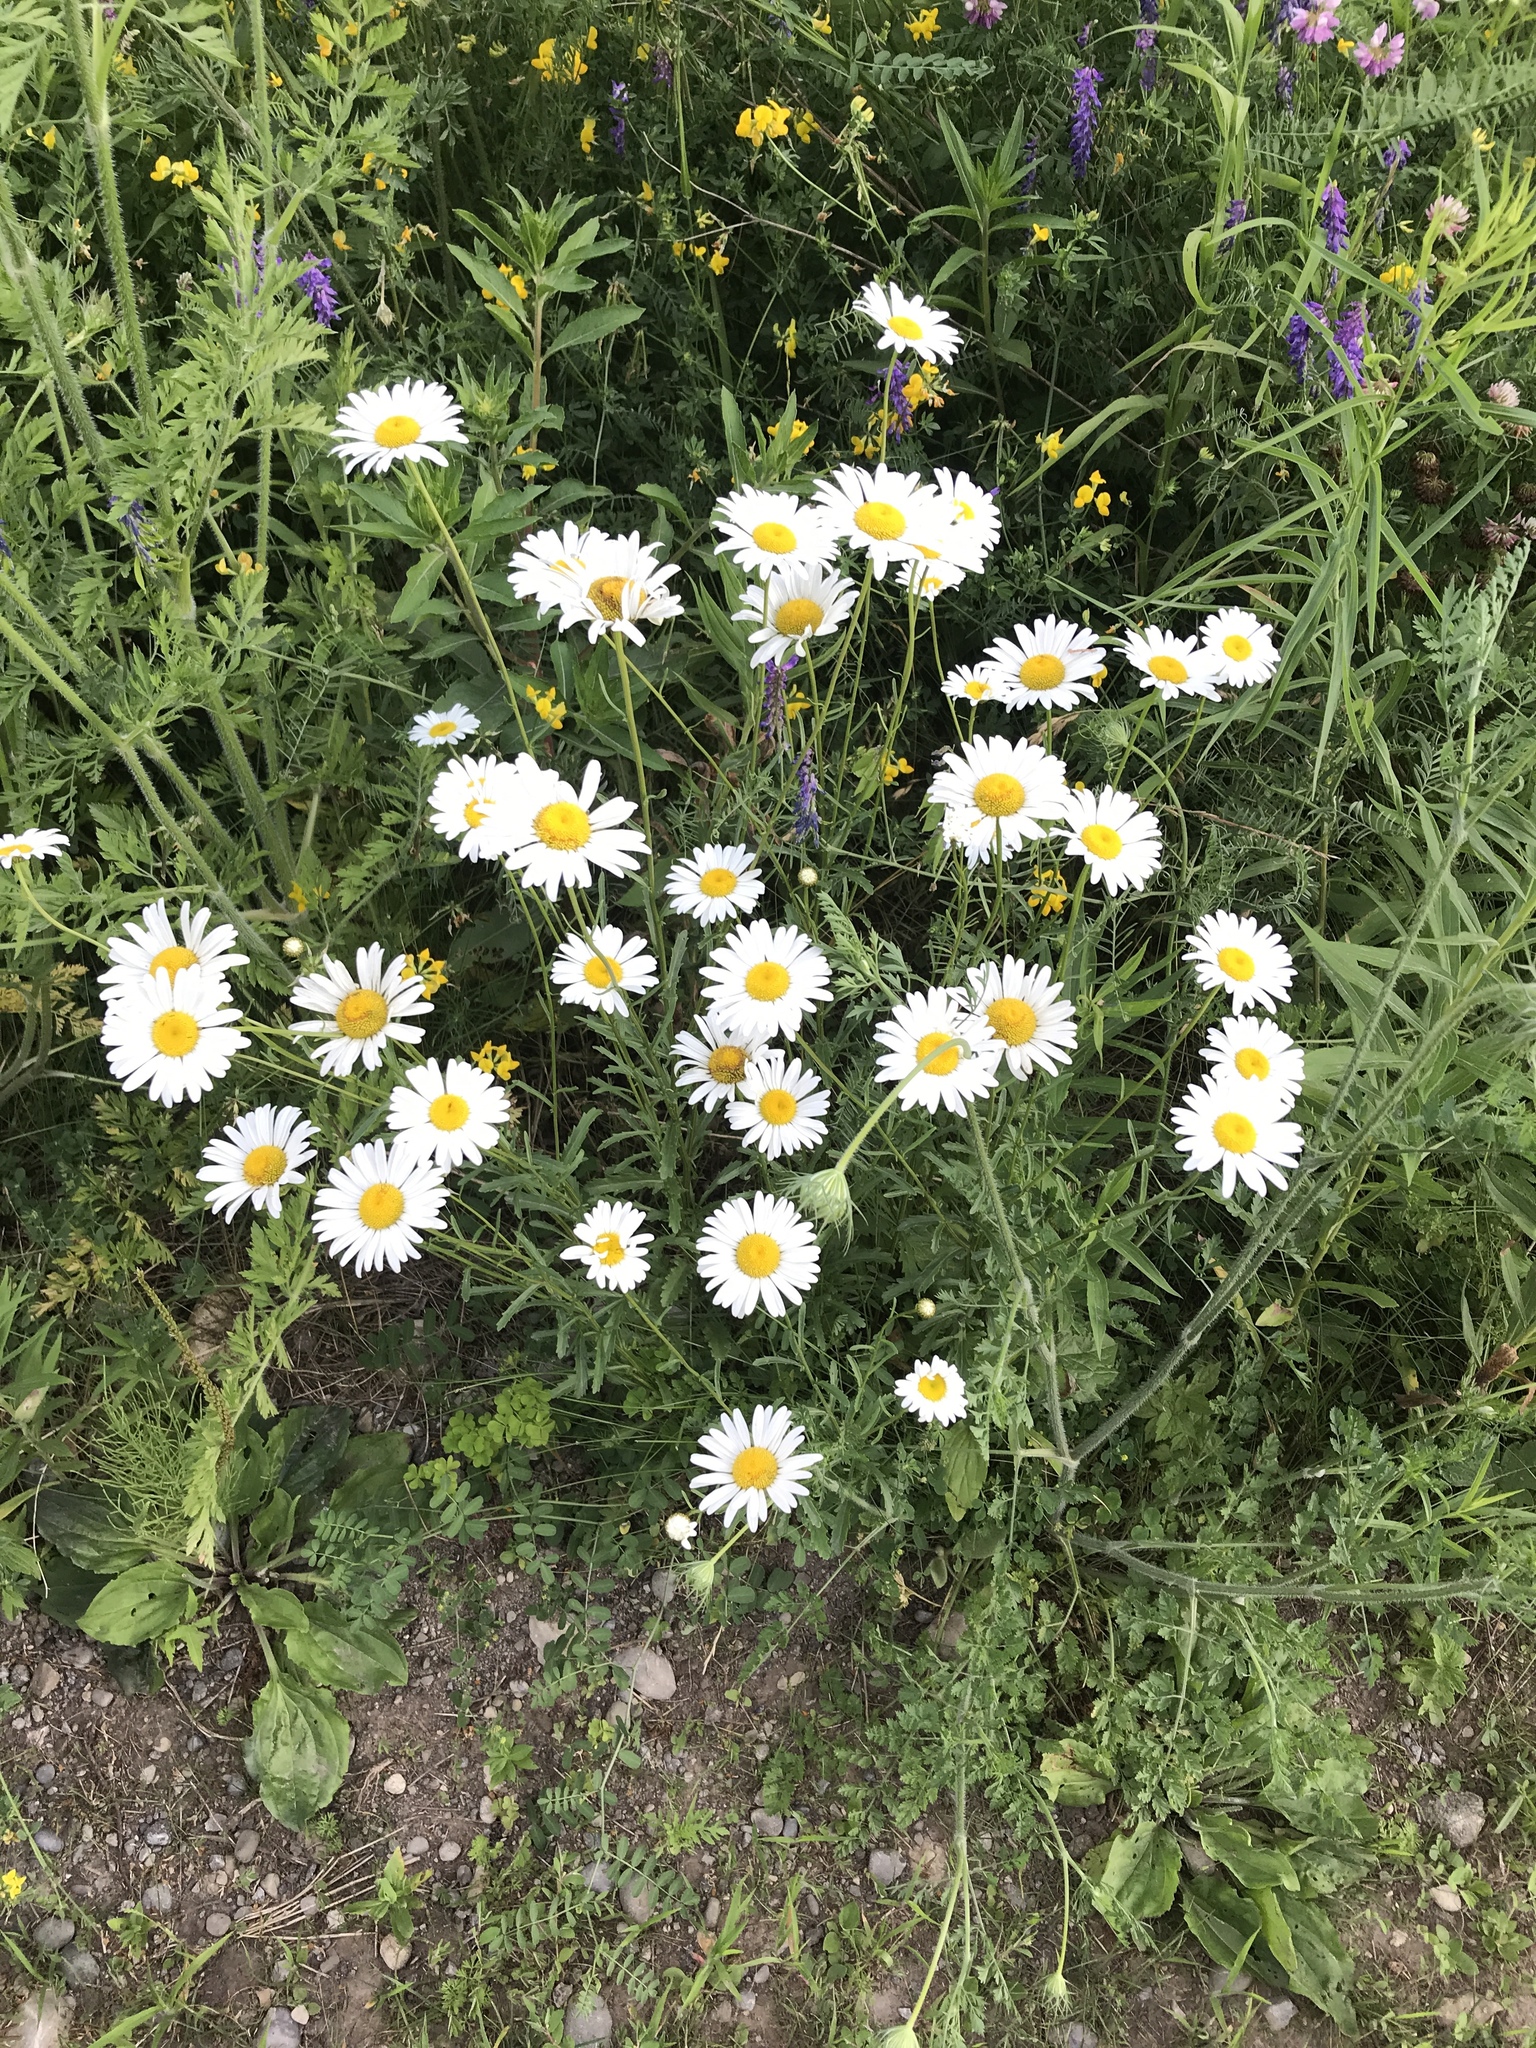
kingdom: Plantae
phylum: Tracheophyta
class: Magnoliopsida
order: Asterales
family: Asteraceae
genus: Leucanthemum
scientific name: Leucanthemum vulgare
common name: Oxeye daisy
